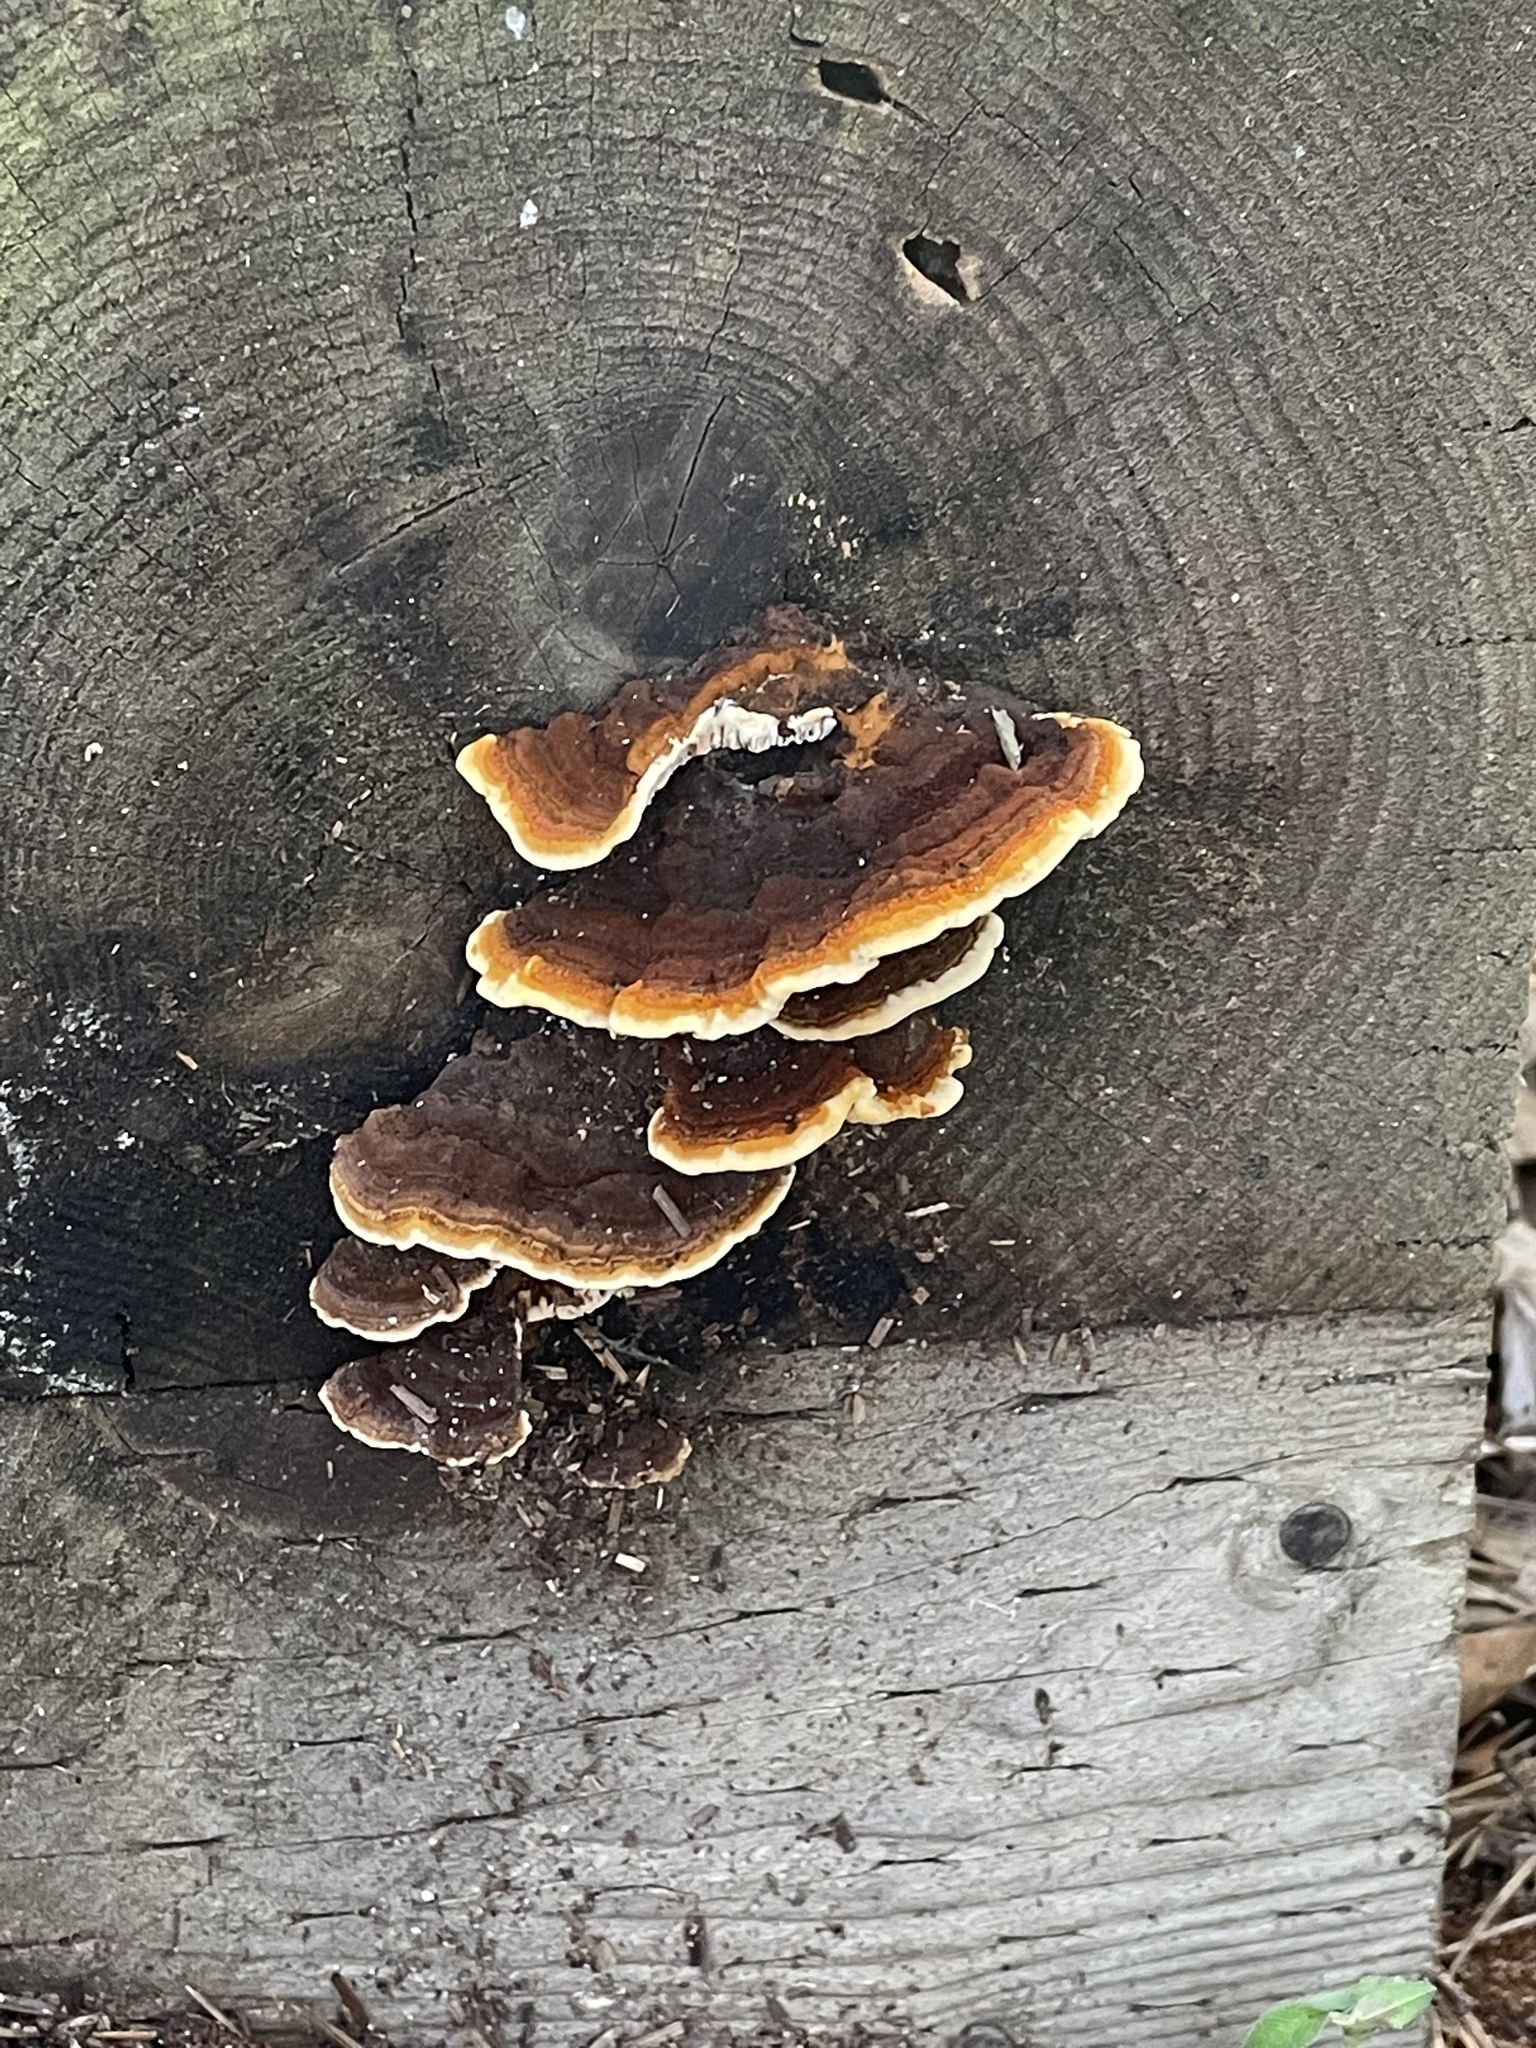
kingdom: Fungi
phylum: Basidiomycota
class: Agaricomycetes
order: Gloeophyllales
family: Gloeophyllaceae
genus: Gloeophyllum
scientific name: Gloeophyllum sepiarium
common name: Conifer mazegill
